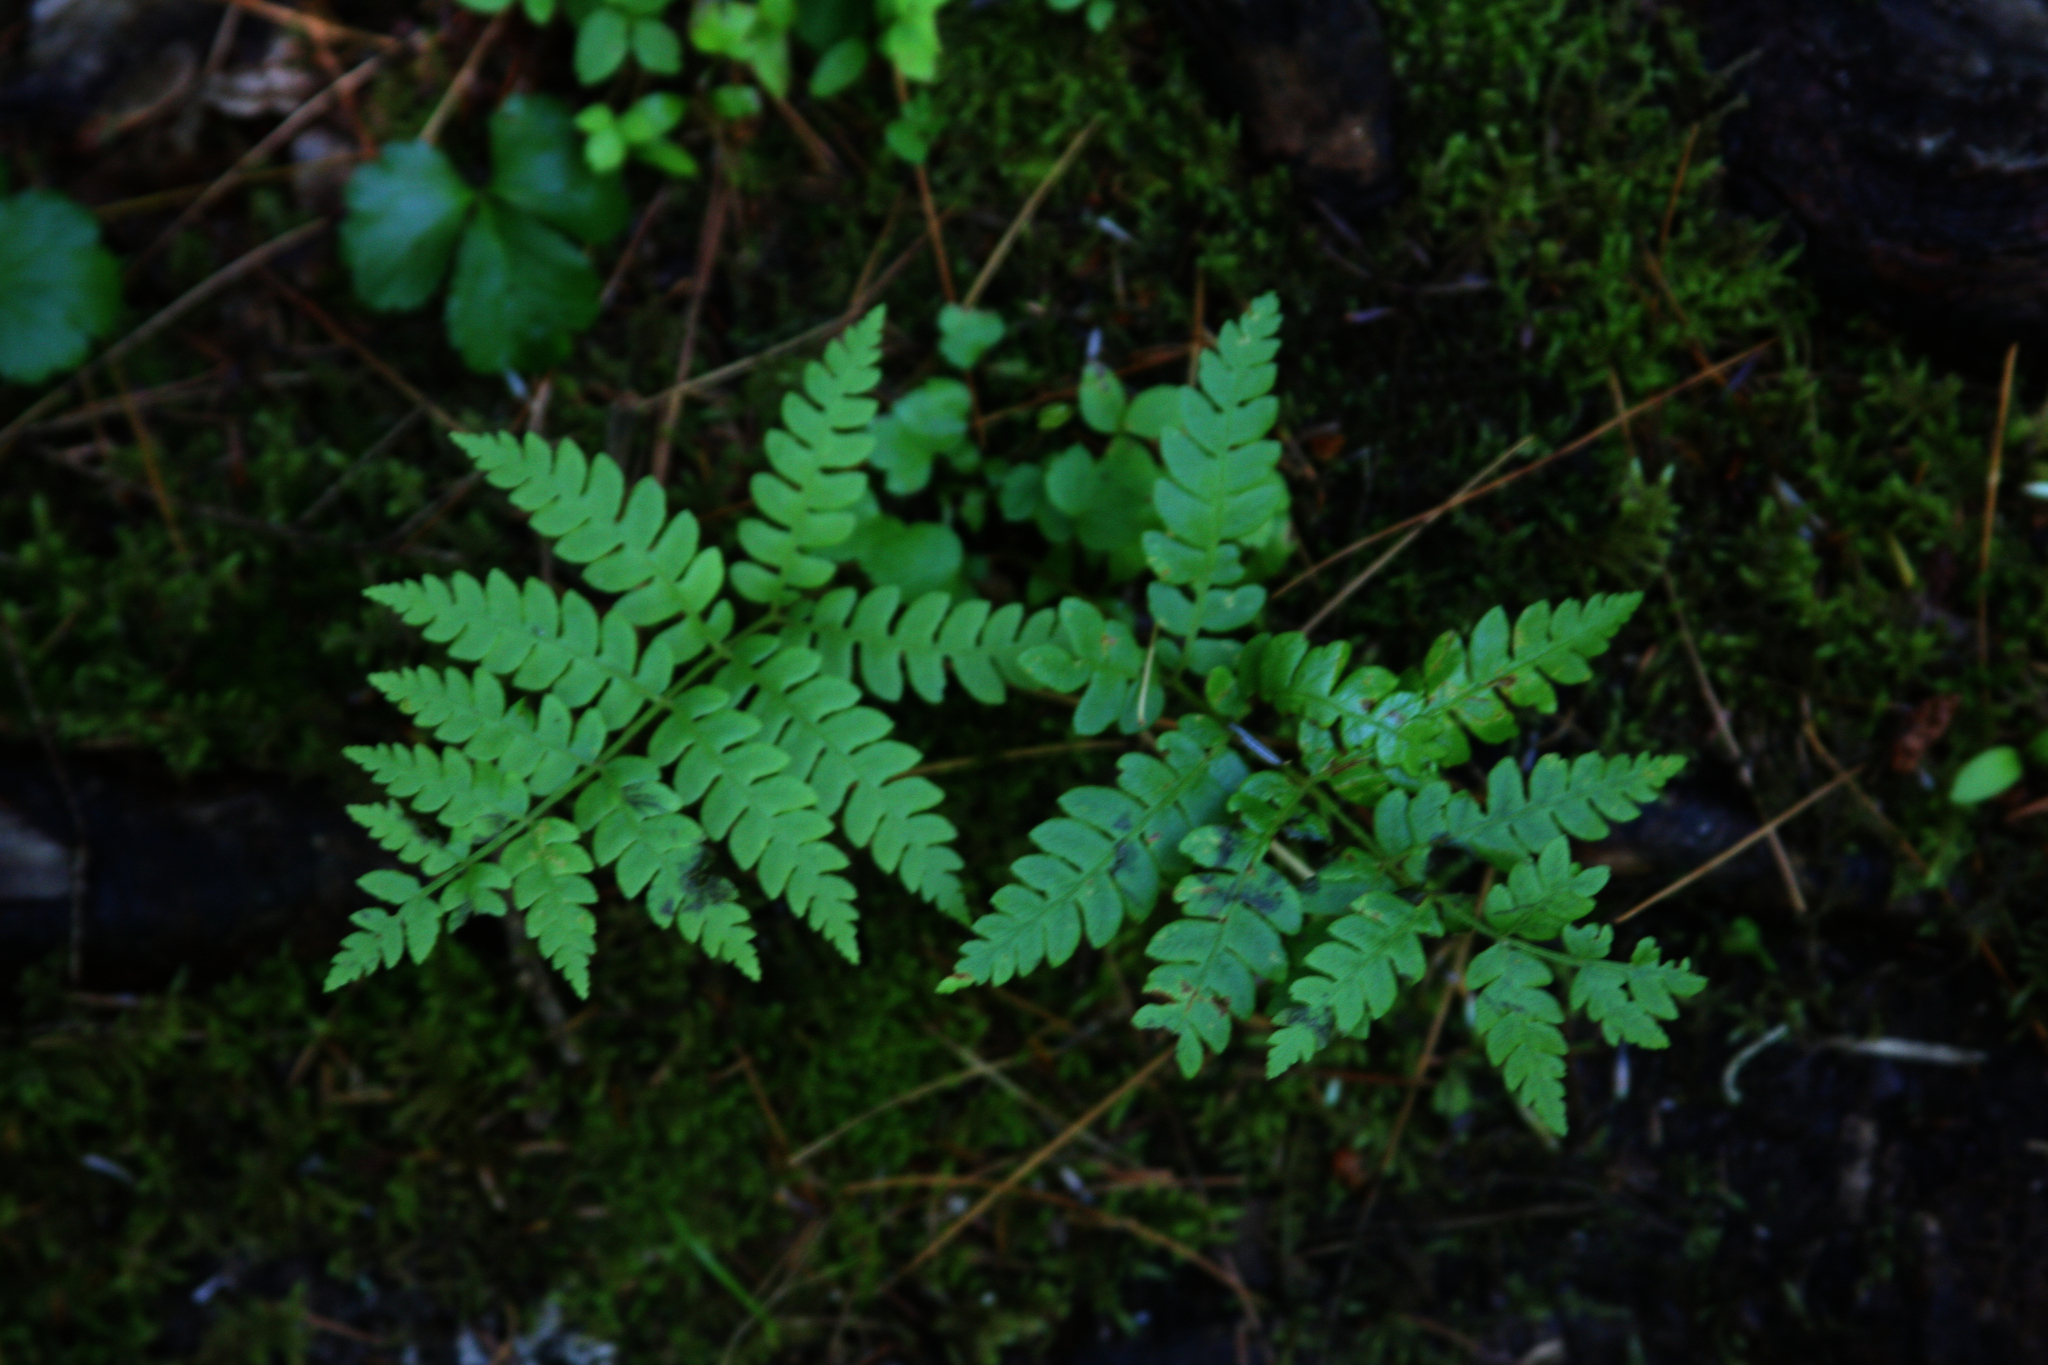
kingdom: Plantae
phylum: Tracheophyta
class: Polypodiopsida
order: Osmundales
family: Osmundaceae
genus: Osmundastrum
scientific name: Osmundastrum cinnamomeum
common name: Cinnamon fern
